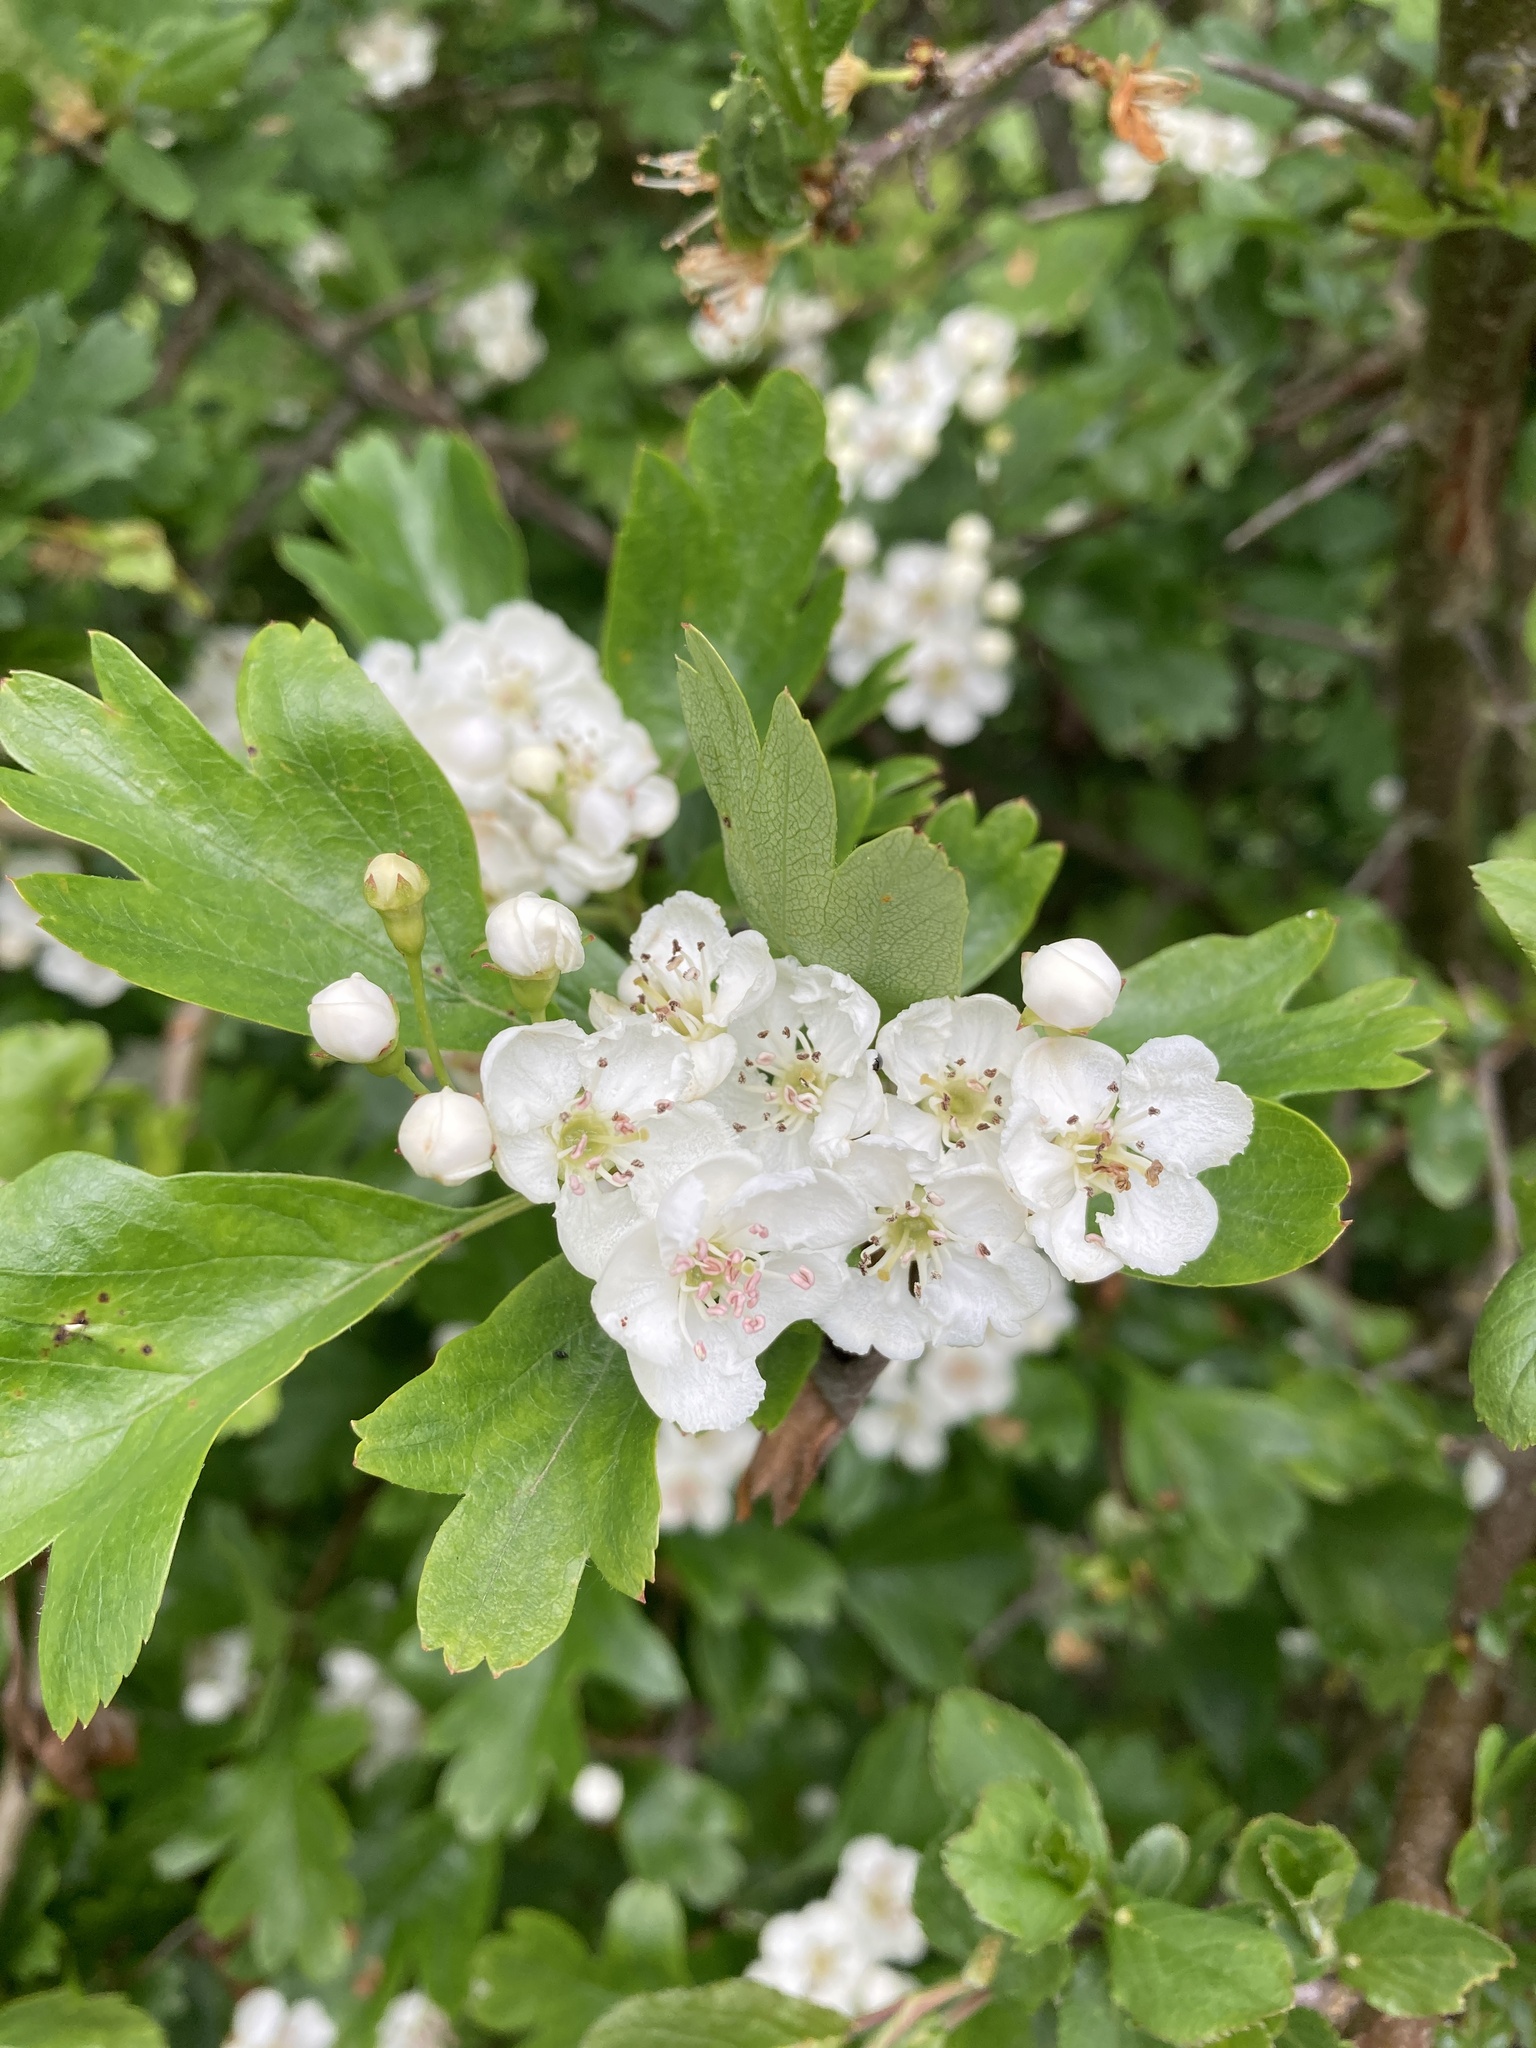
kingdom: Plantae
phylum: Tracheophyta
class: Magnoliopsida
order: Rosales
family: Rosaceae
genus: Crataegus
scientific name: Crataegus monogyna
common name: Hawthorn
